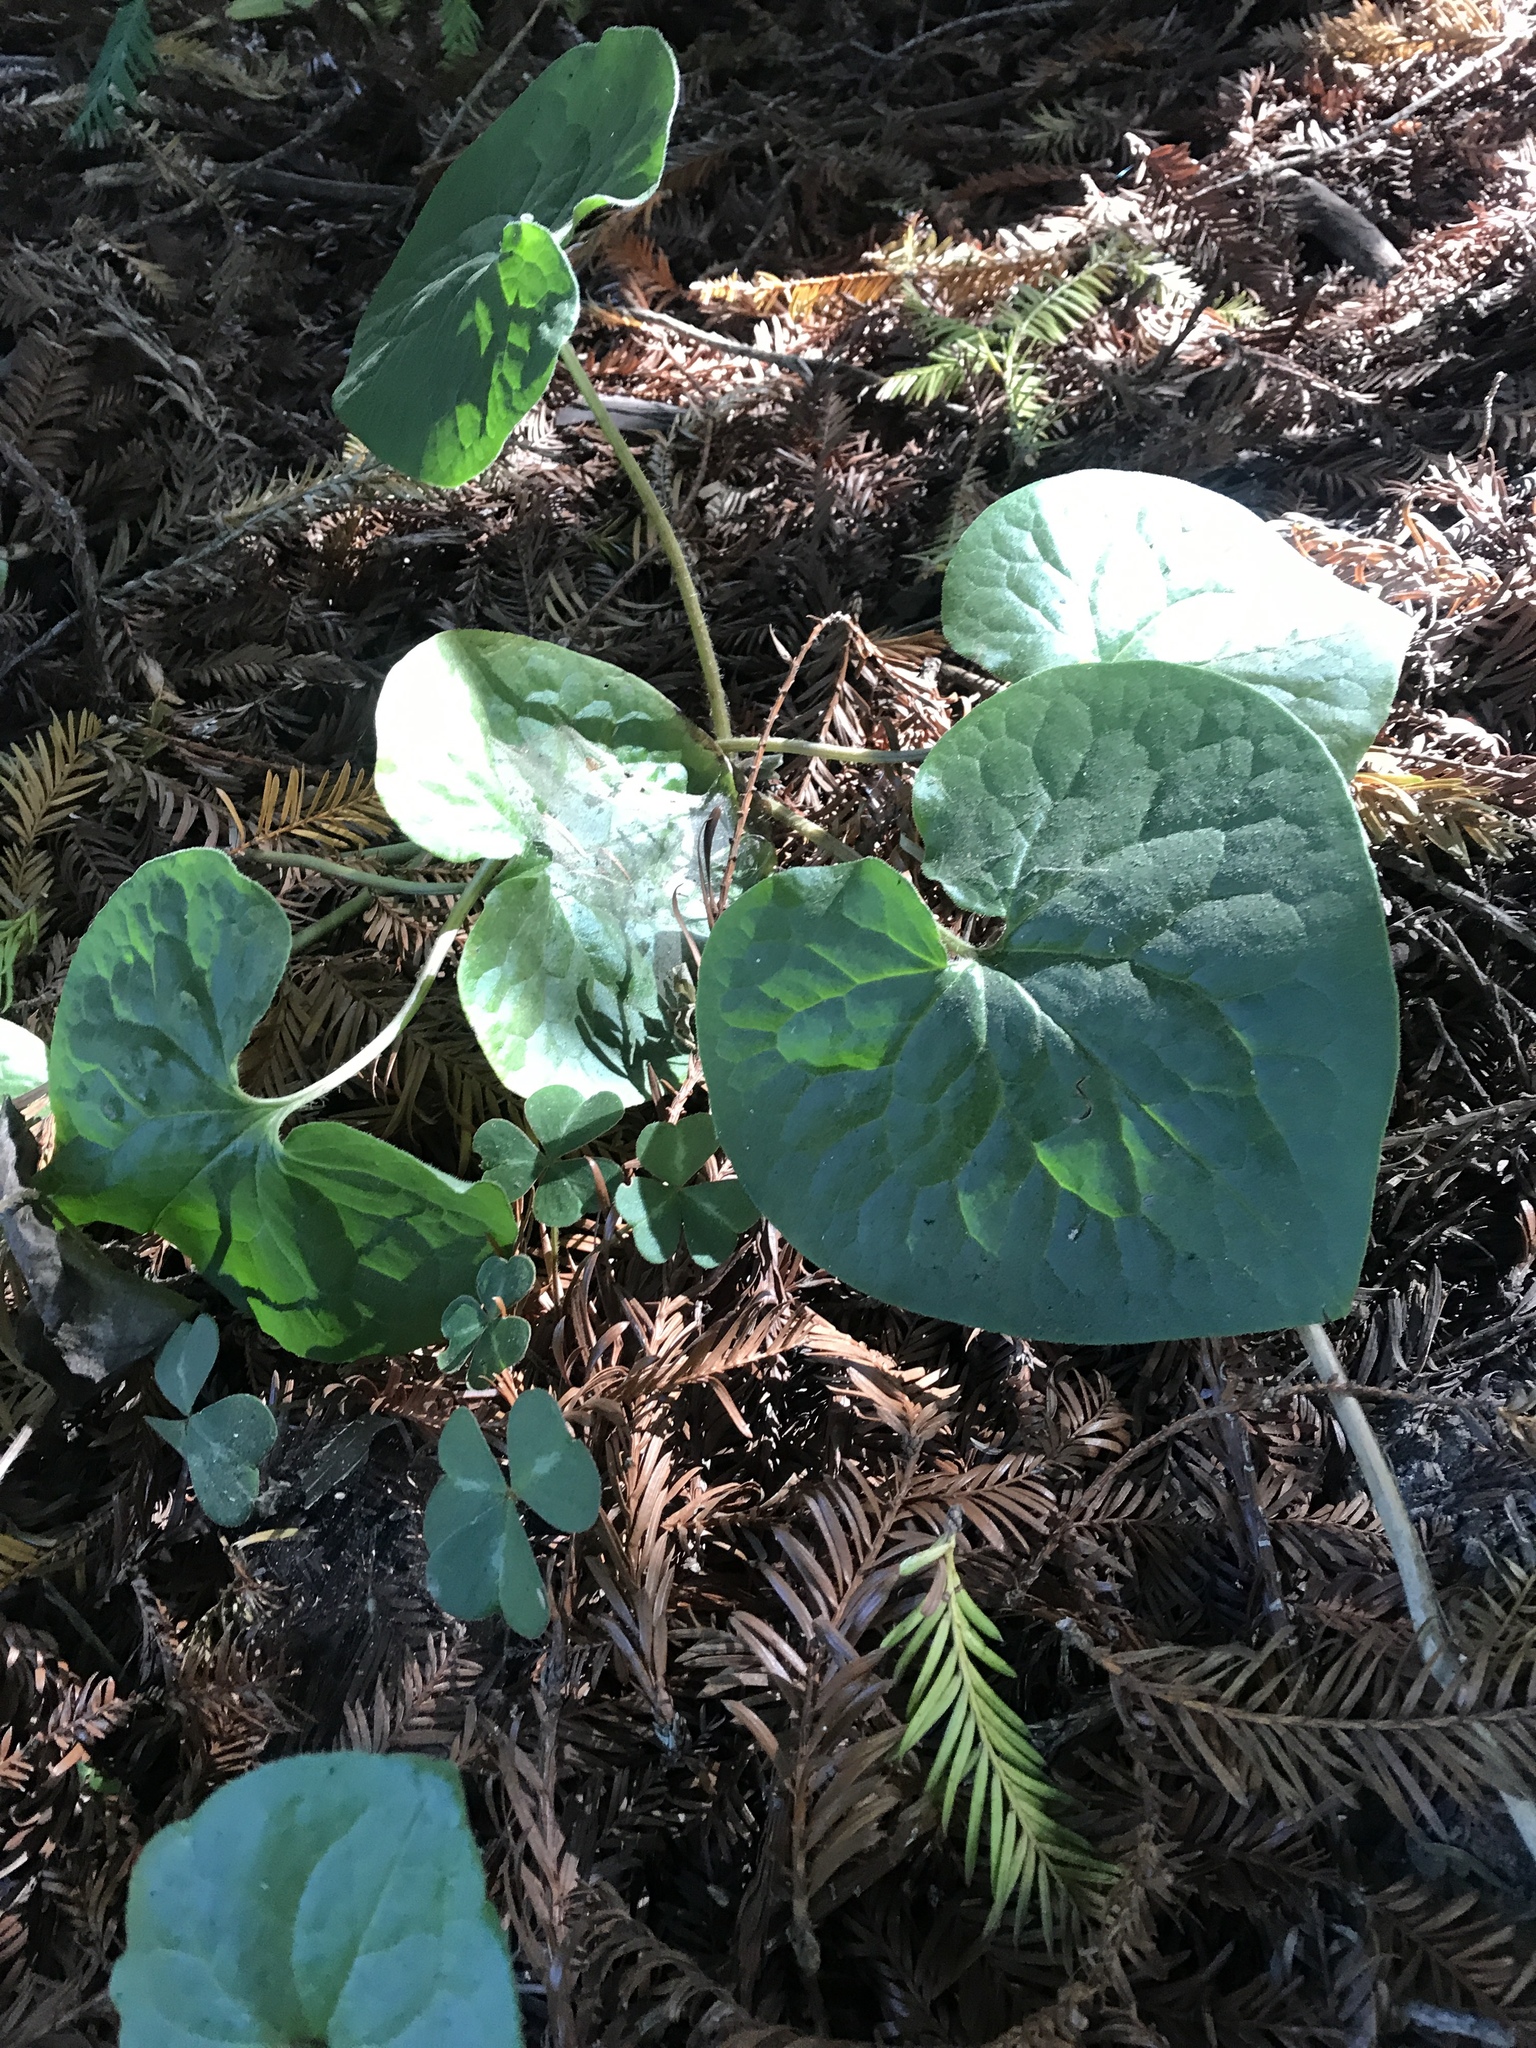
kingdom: Plantae
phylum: Tracheophyta
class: Magnoliopsida
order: Piperales
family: Aristolochiaceae
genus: Asarum
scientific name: Asarum caudatum
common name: Wild ginger
